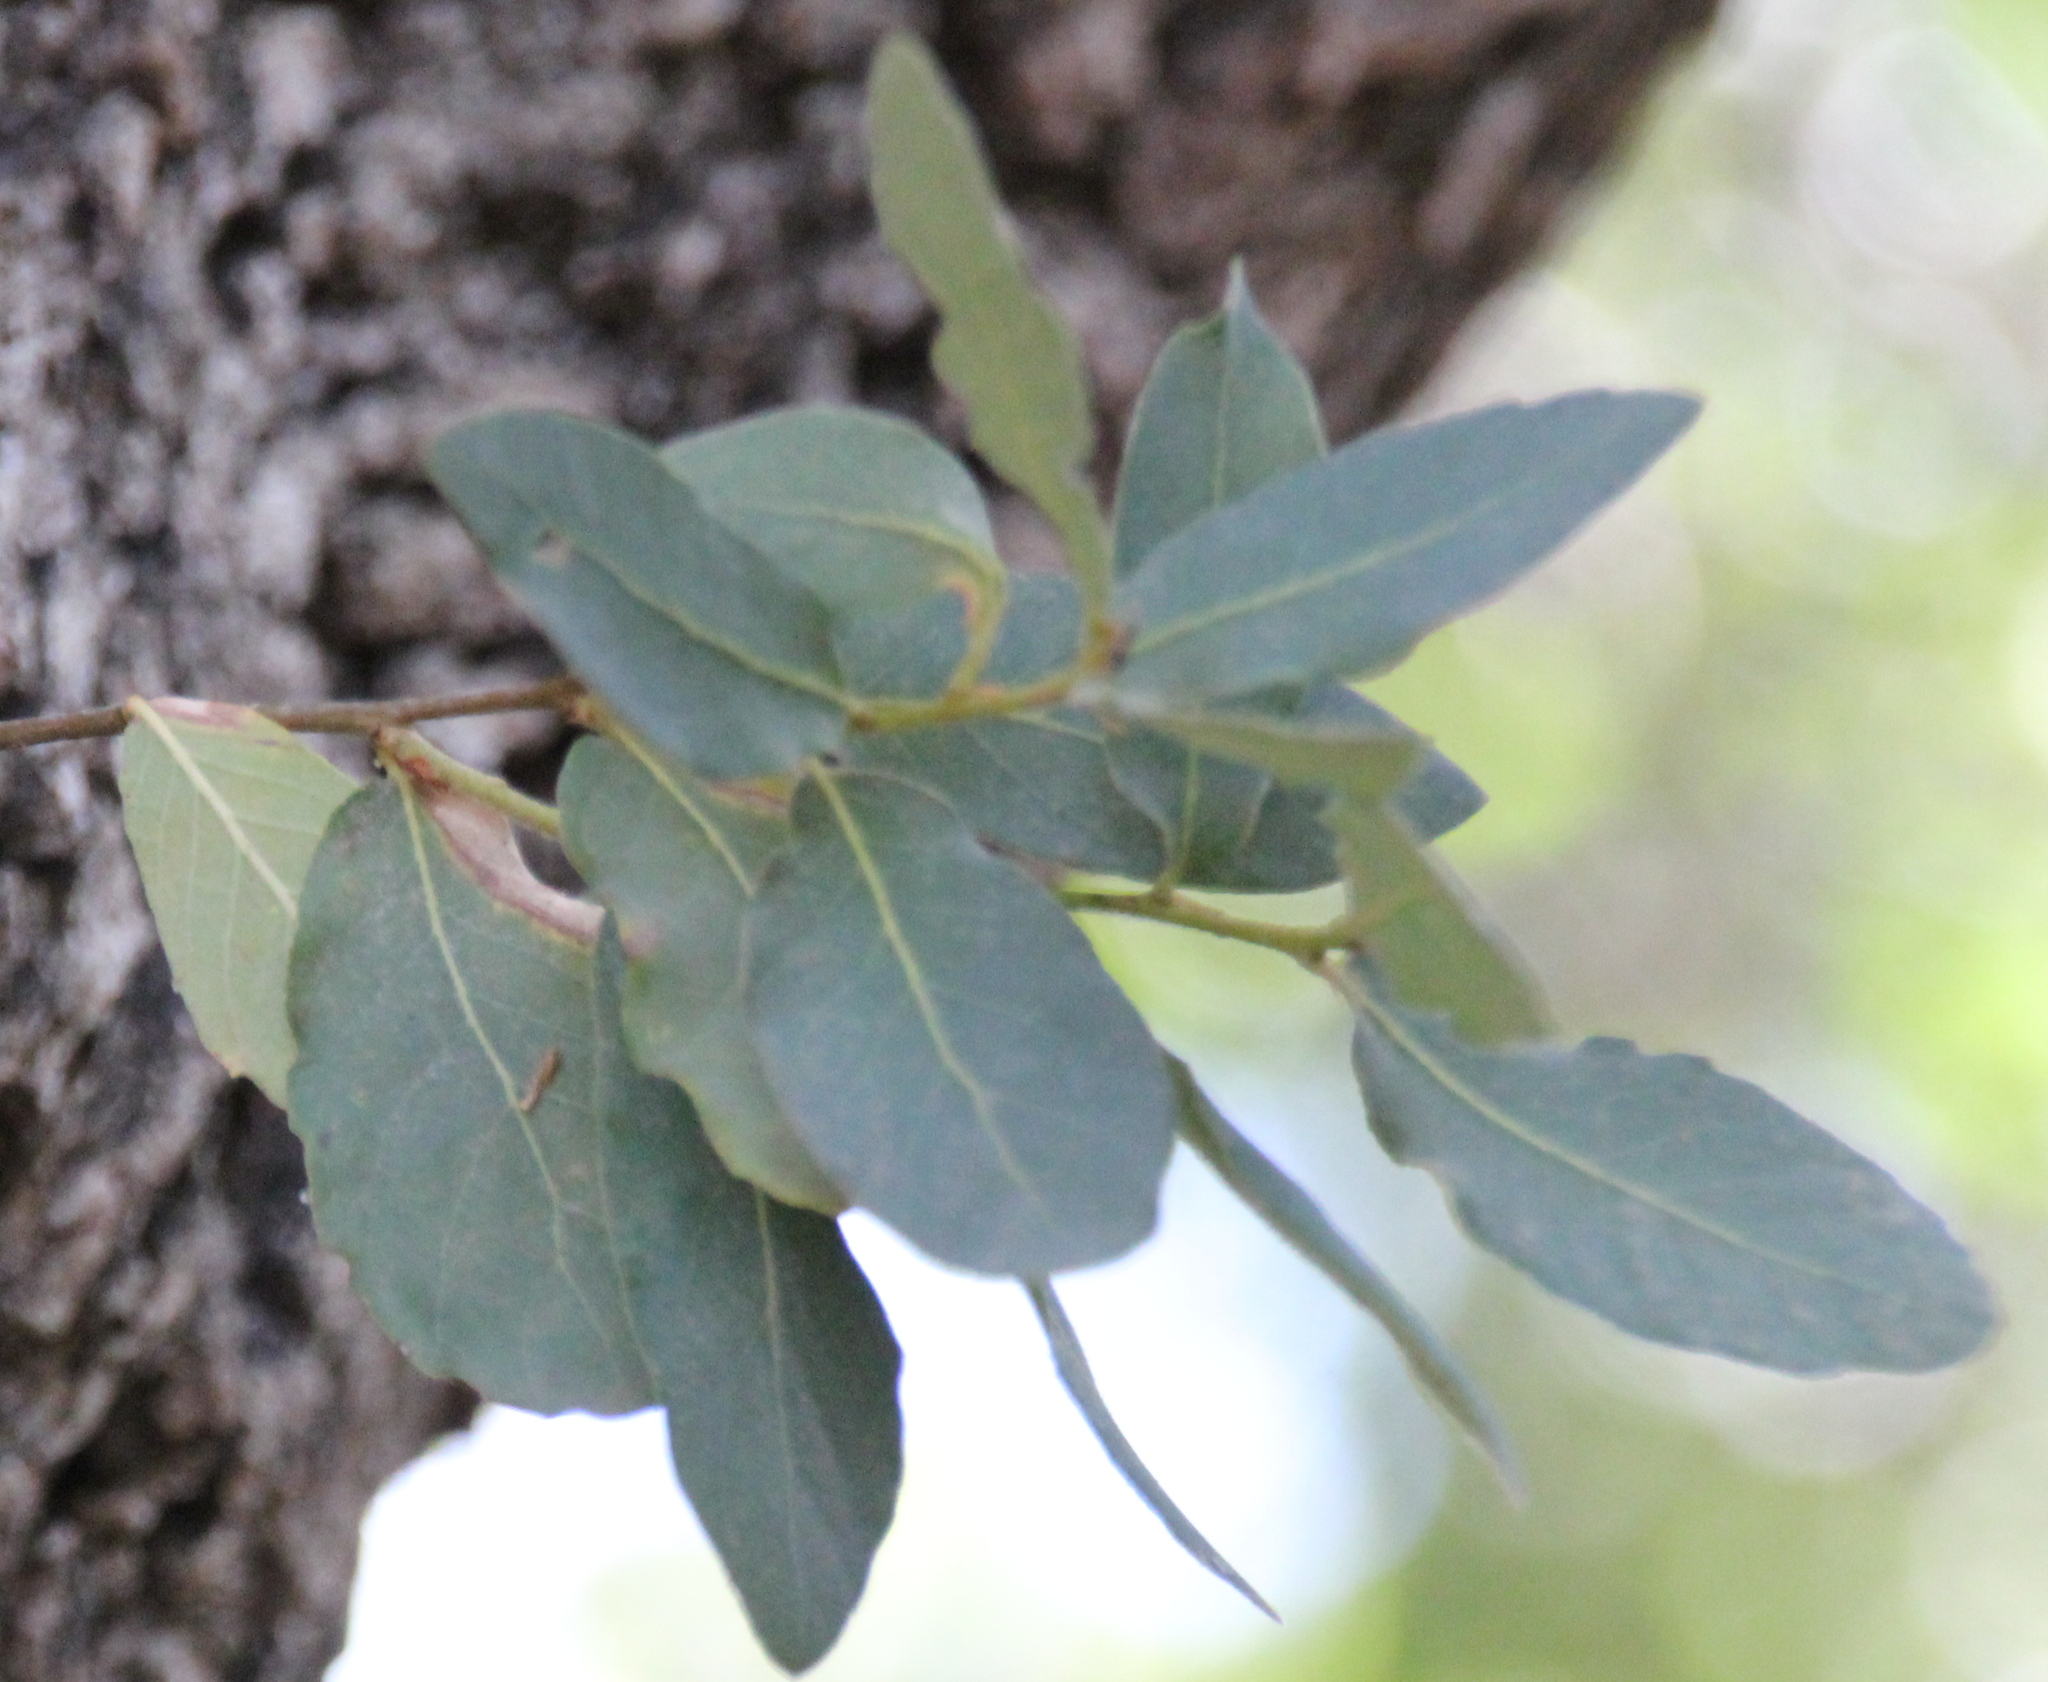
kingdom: Plantae
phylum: Tracheophyta
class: Magnoliopsida
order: Fagales
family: Fagaceae
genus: Quercus
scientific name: Quercus engelmannii
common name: Engelmann oak
